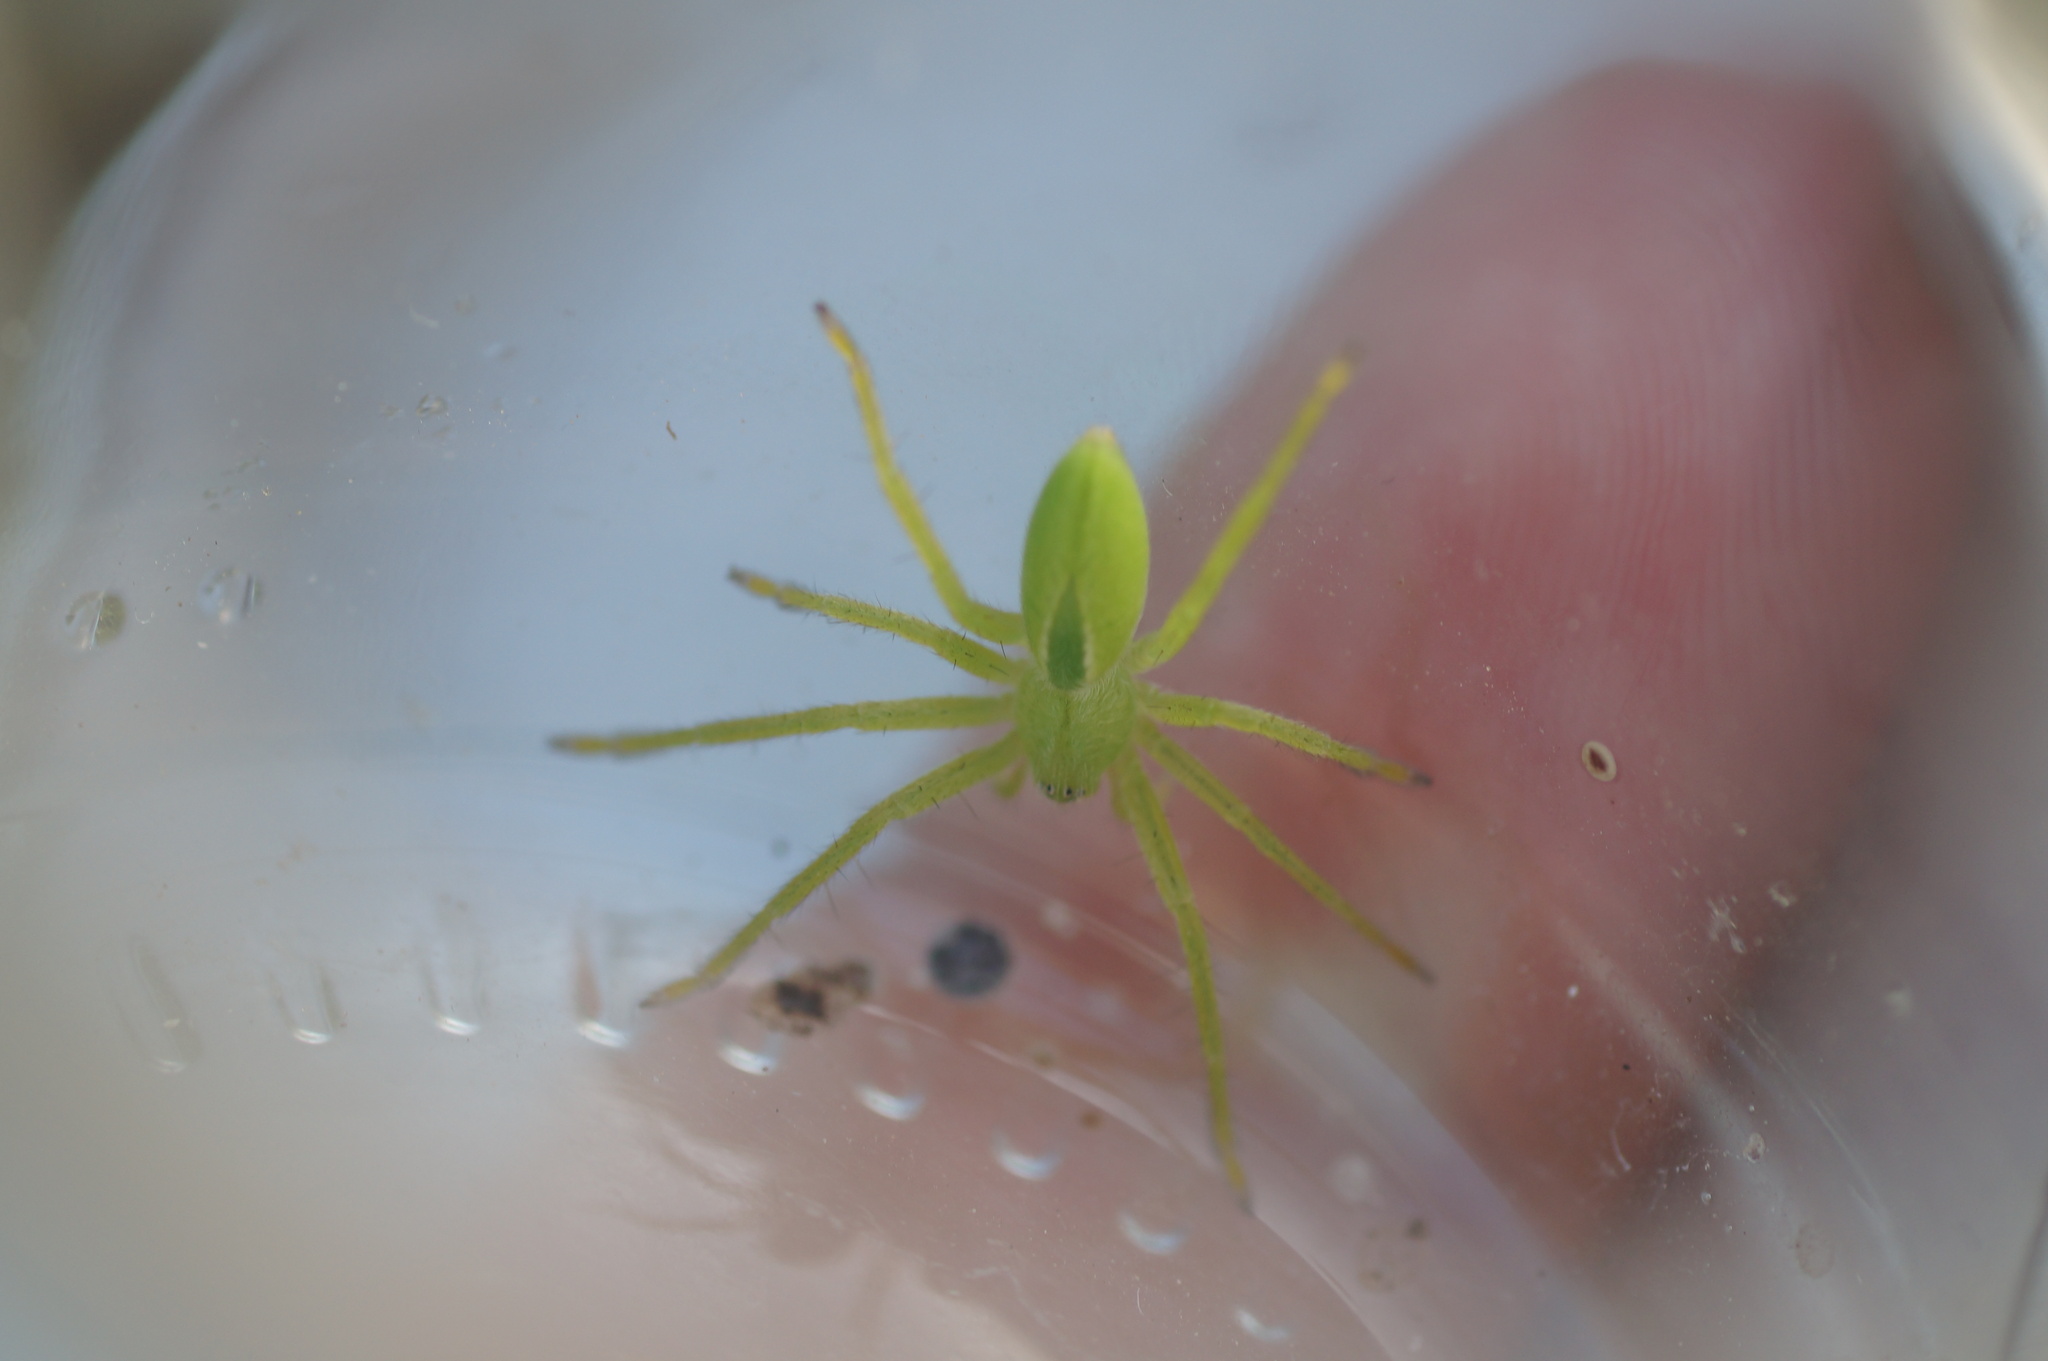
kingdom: Animalia
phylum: Arthropoda
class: Arachnida
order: Araneae
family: Sparassidae
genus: Micrommata
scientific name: Micrommata virescens
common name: Green spider
